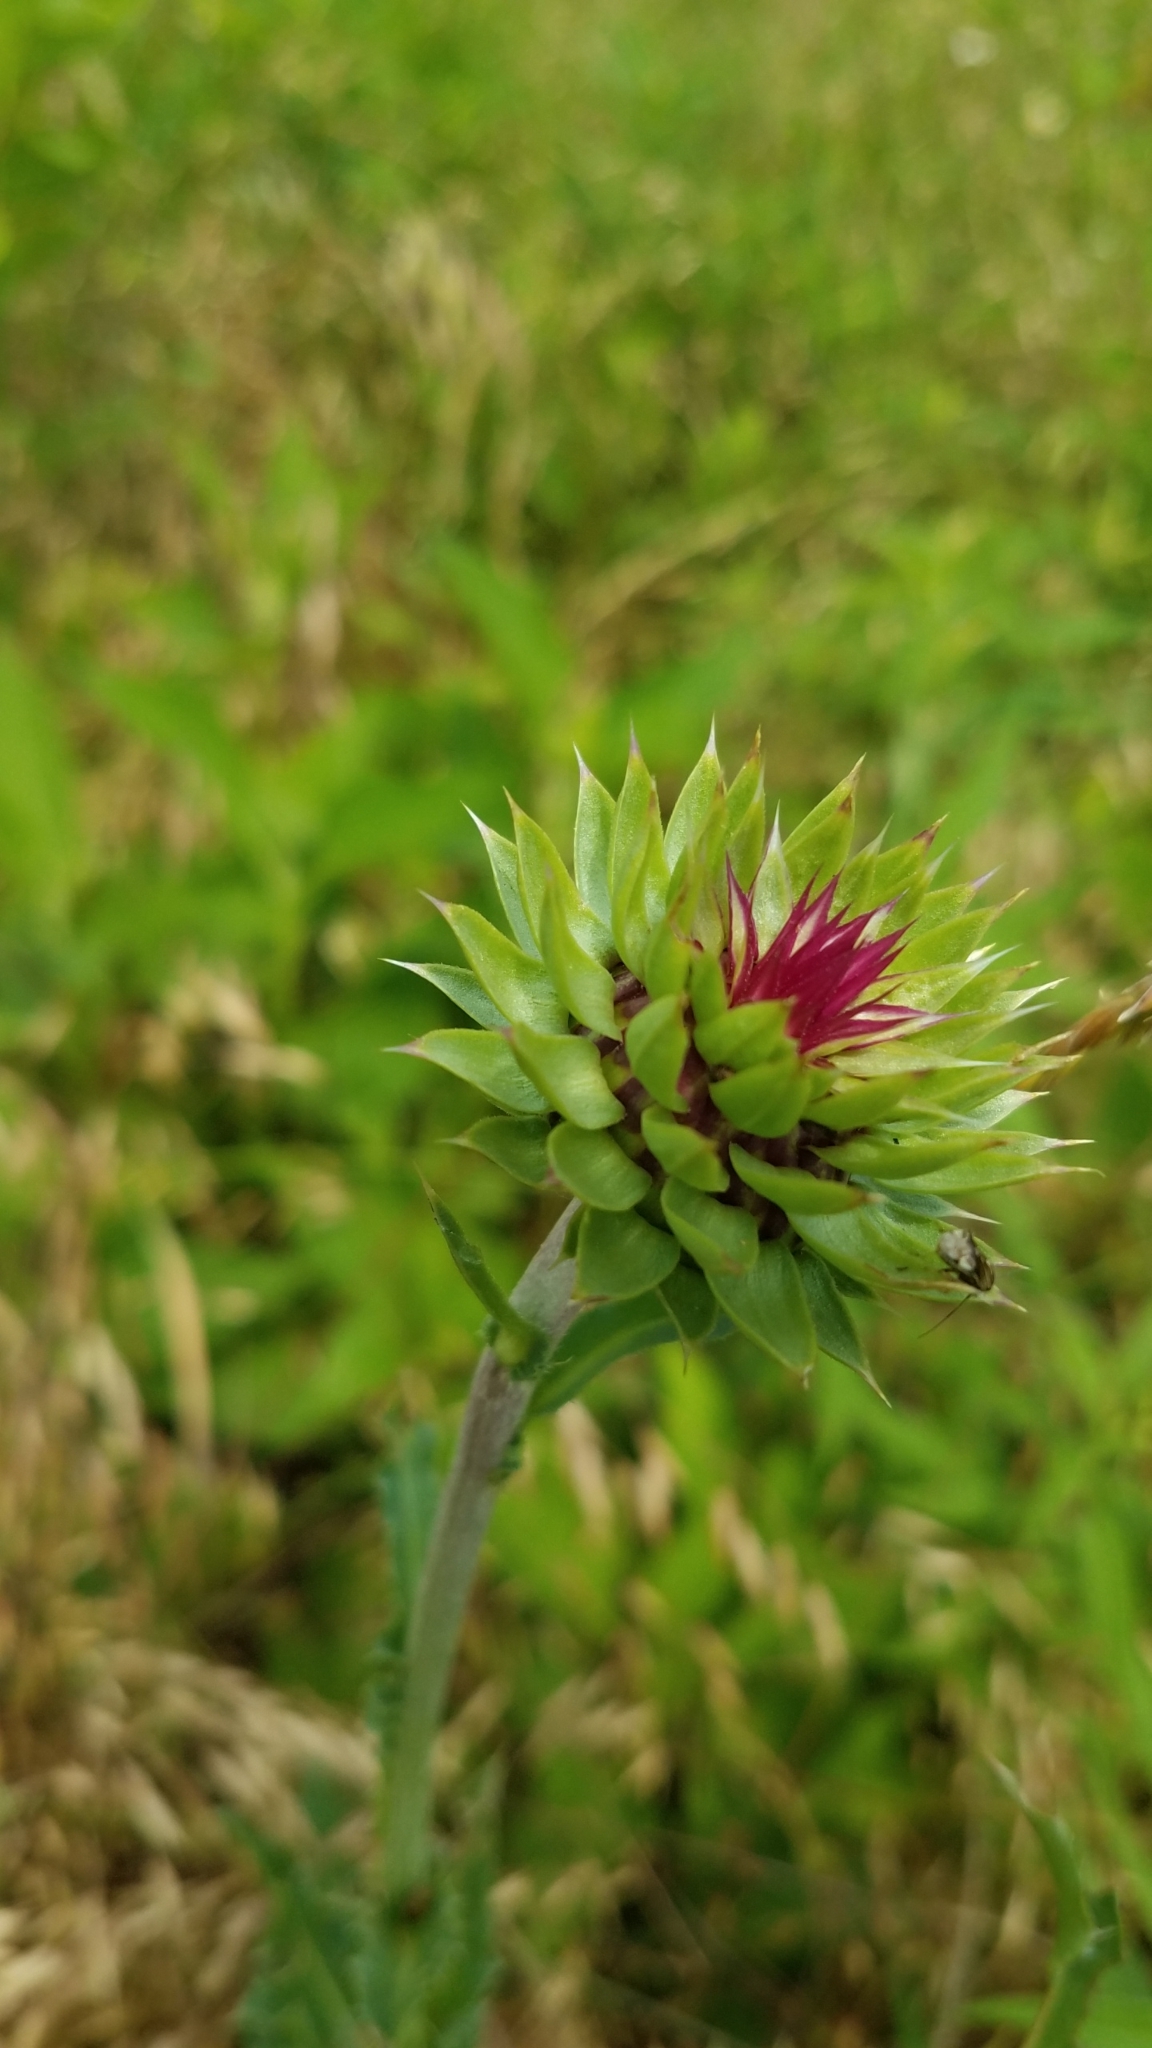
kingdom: Plantae
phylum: Tracheophyta
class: Magnoliopsida
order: Asterales
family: Asteraceae
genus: Carduus
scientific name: Carduus nutans
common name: Musk thistle
